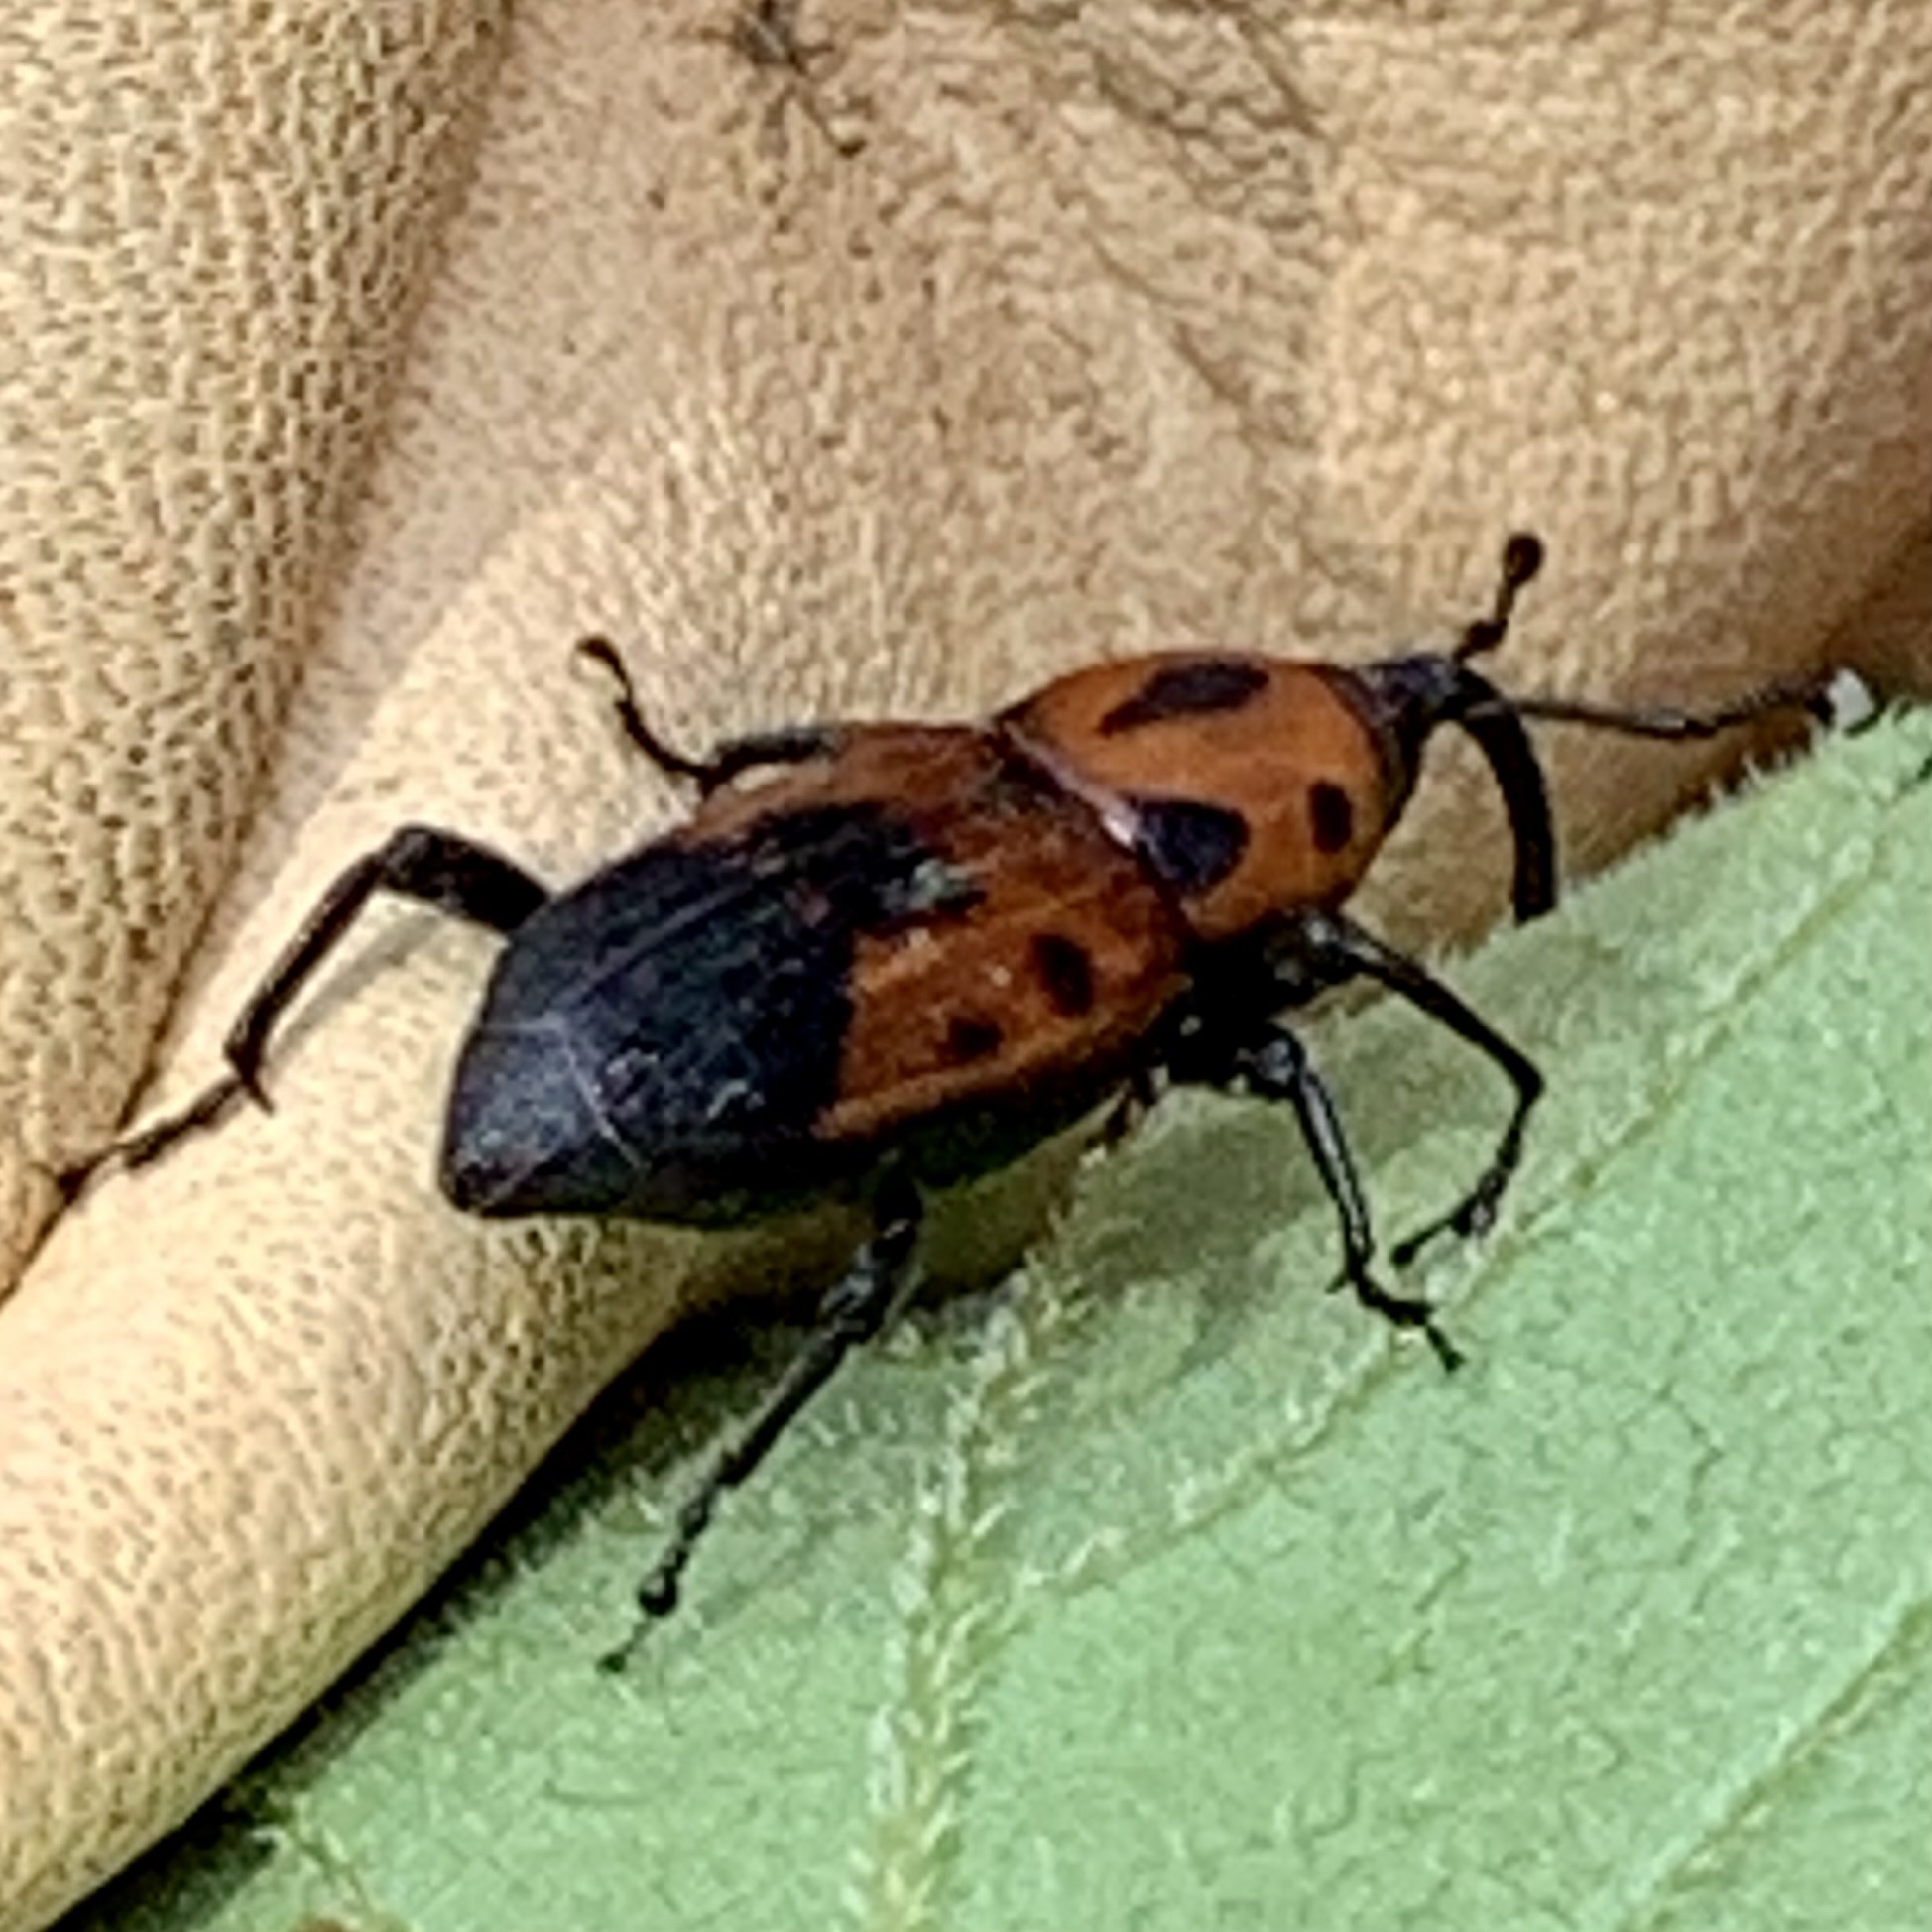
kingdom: Animalia
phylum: Arthropoda
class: Insecta
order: Coleoptera
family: Dryophthoridae
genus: Rhodobaenus
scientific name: Rhodobaenus quinquepunctatus
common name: Cocklebur weevil
